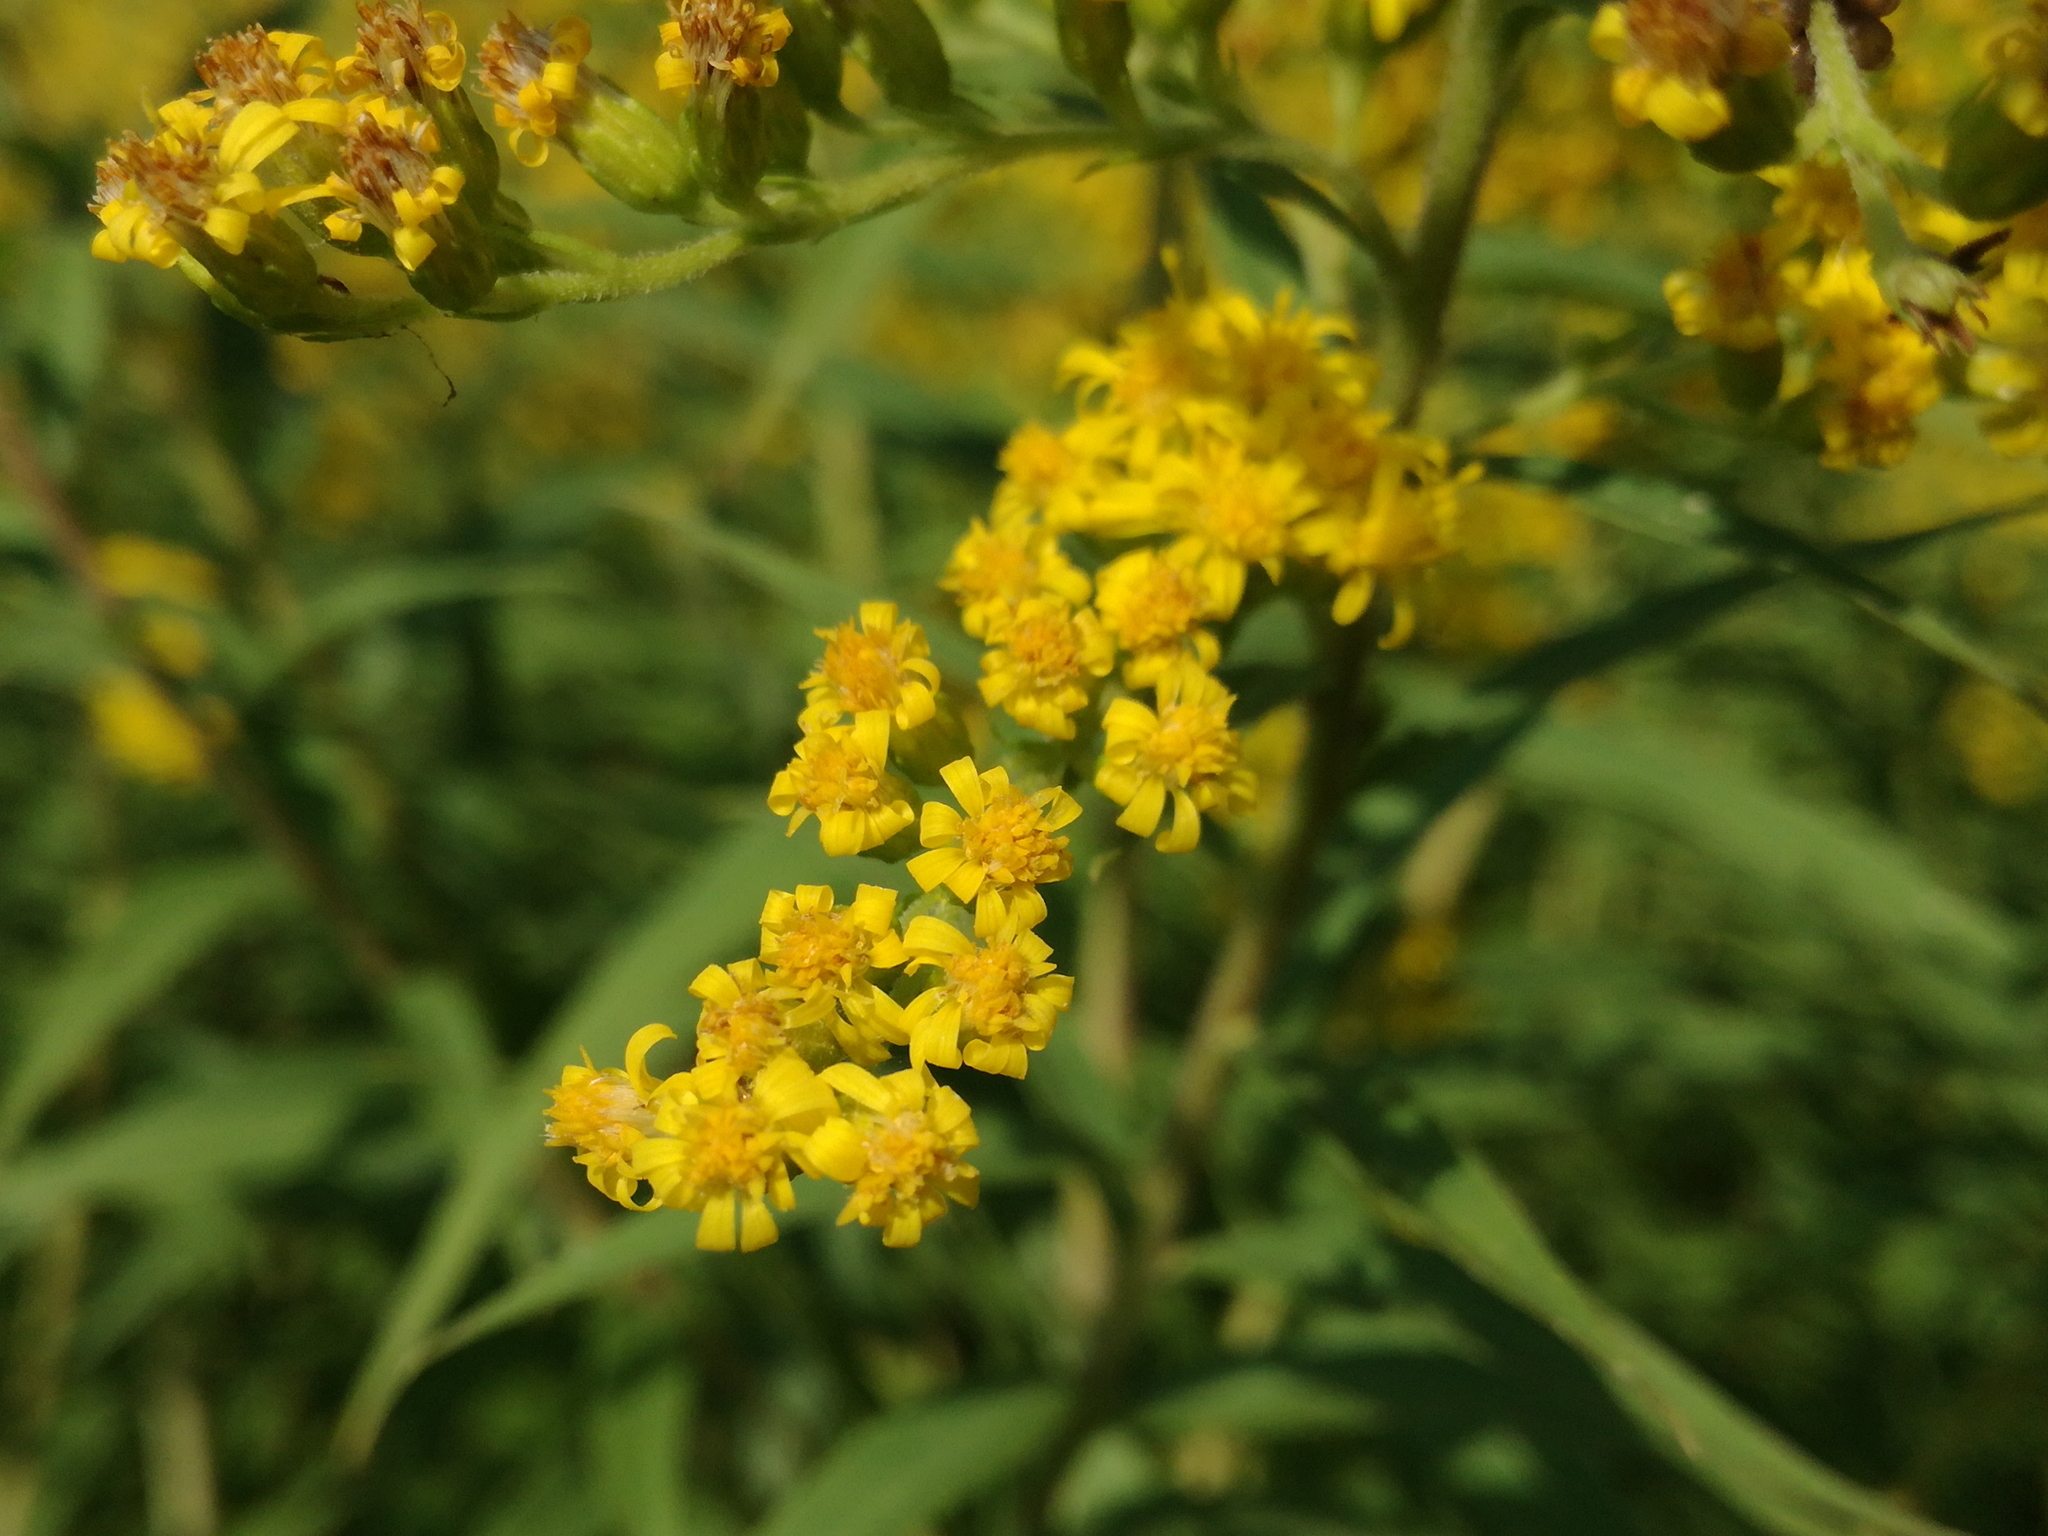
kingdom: Plantae
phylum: Tracheophyta
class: Magnoliopsida
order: Asterales
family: Asteraceae
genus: Solidago
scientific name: Solidago gigantea
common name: Giant goldenrod
